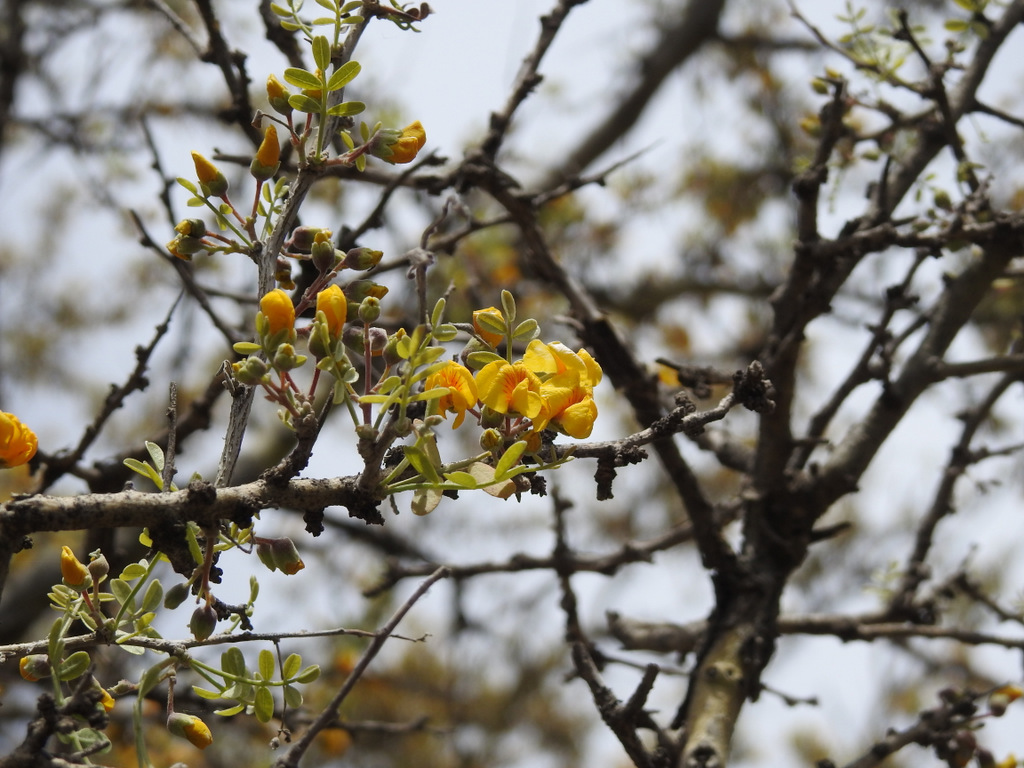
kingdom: Plantae
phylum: Tracheophyta
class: Magnoliopsida
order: Fabales
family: Fabaceae
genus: Geoffroea
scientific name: Geoffroea decorticans
